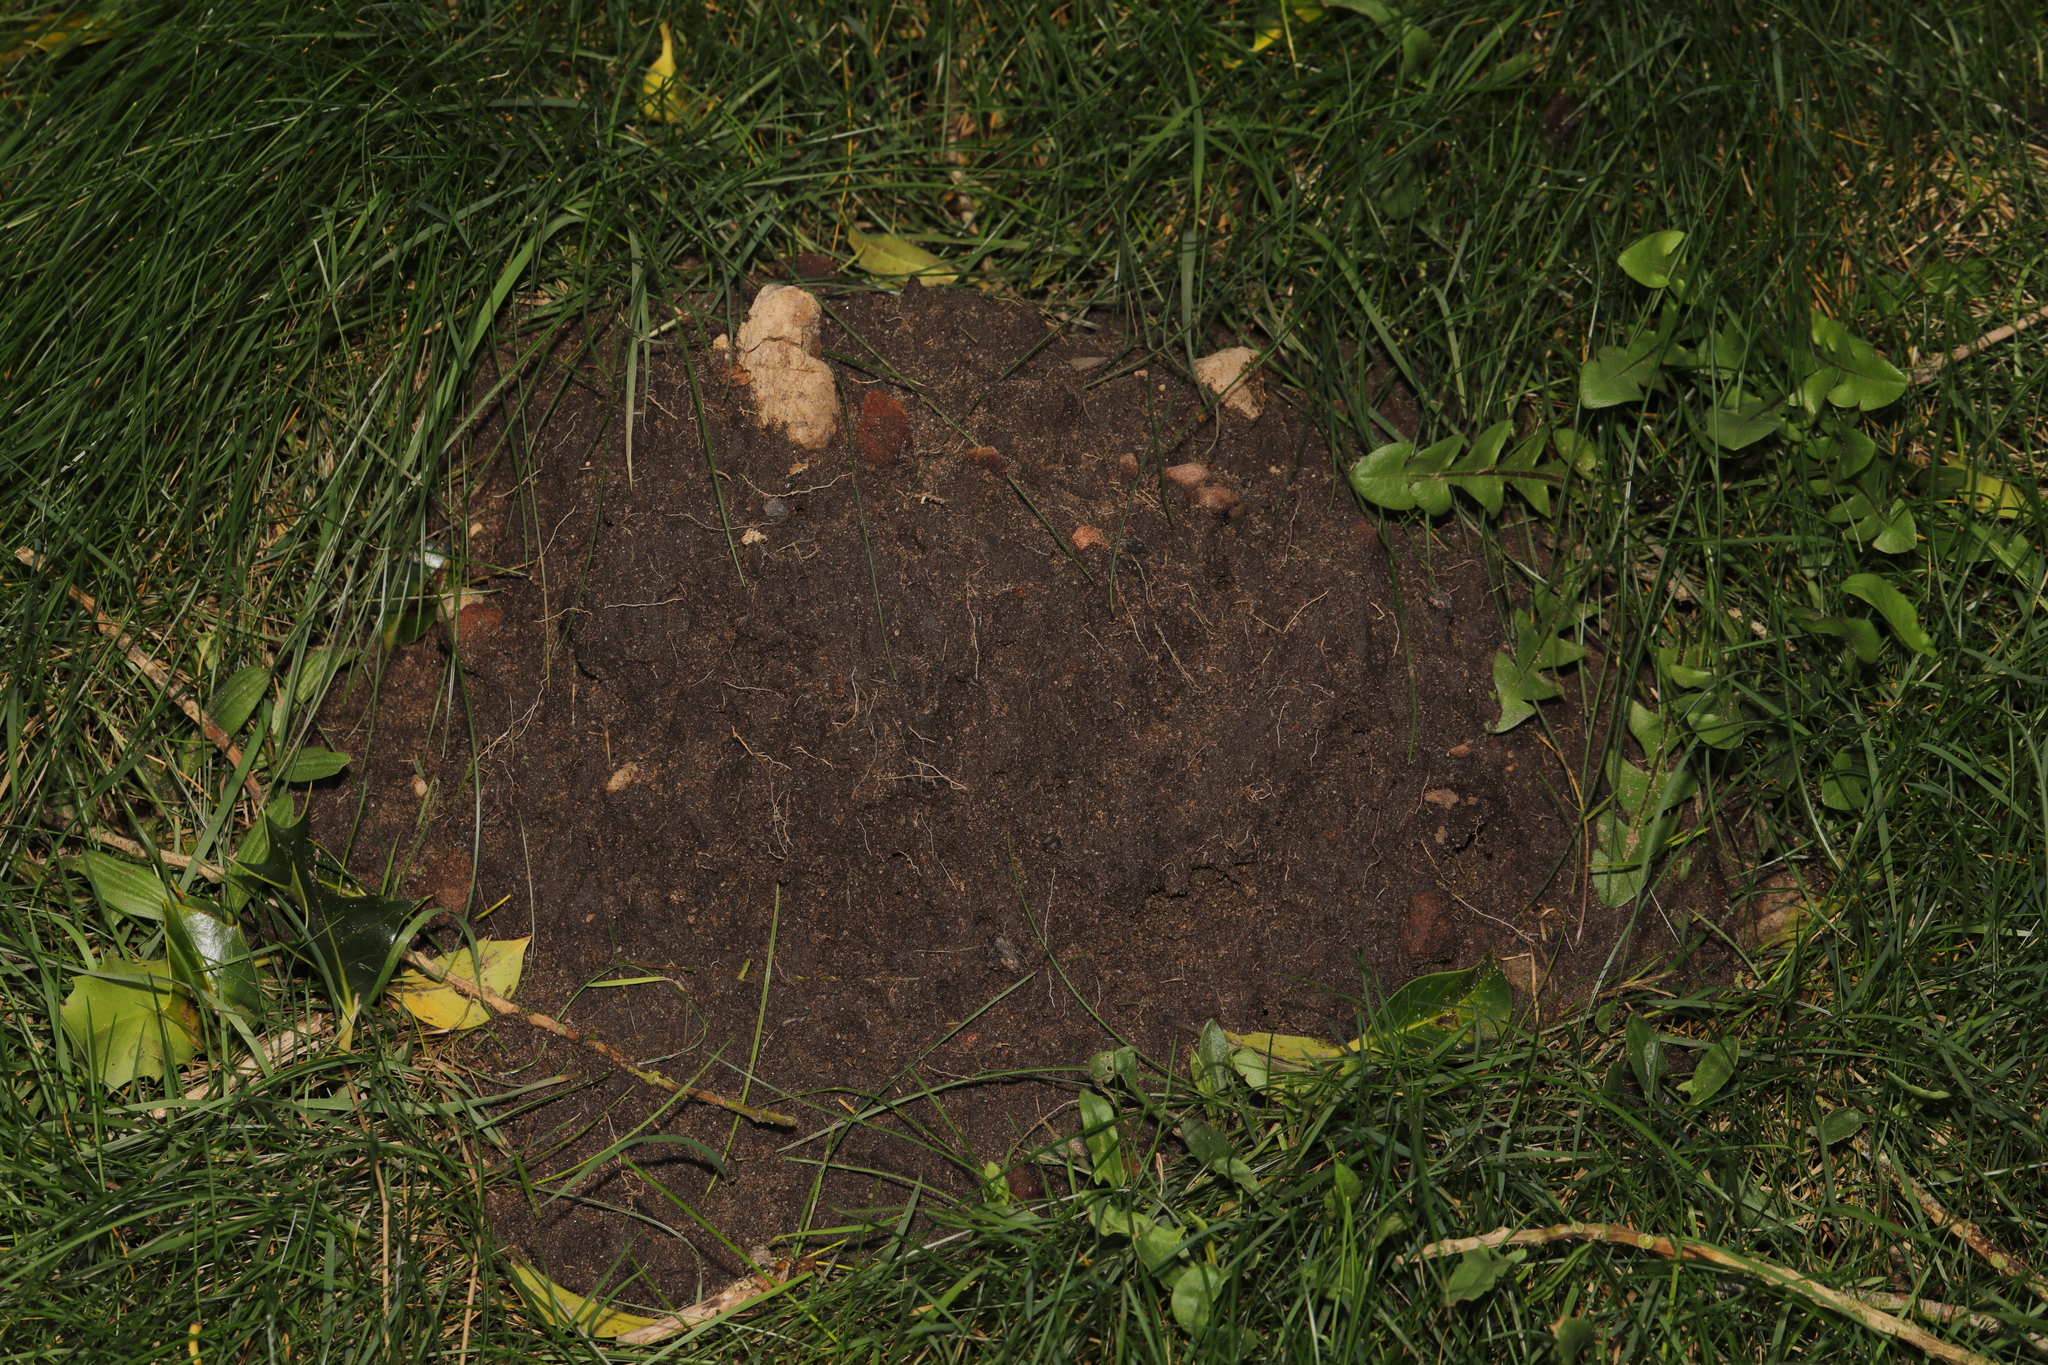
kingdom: Animalia
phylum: Chordata
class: Mammalia
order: Soricomorpha
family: Talpidae
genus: Talpa
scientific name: Talpa europaea
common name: European mole
